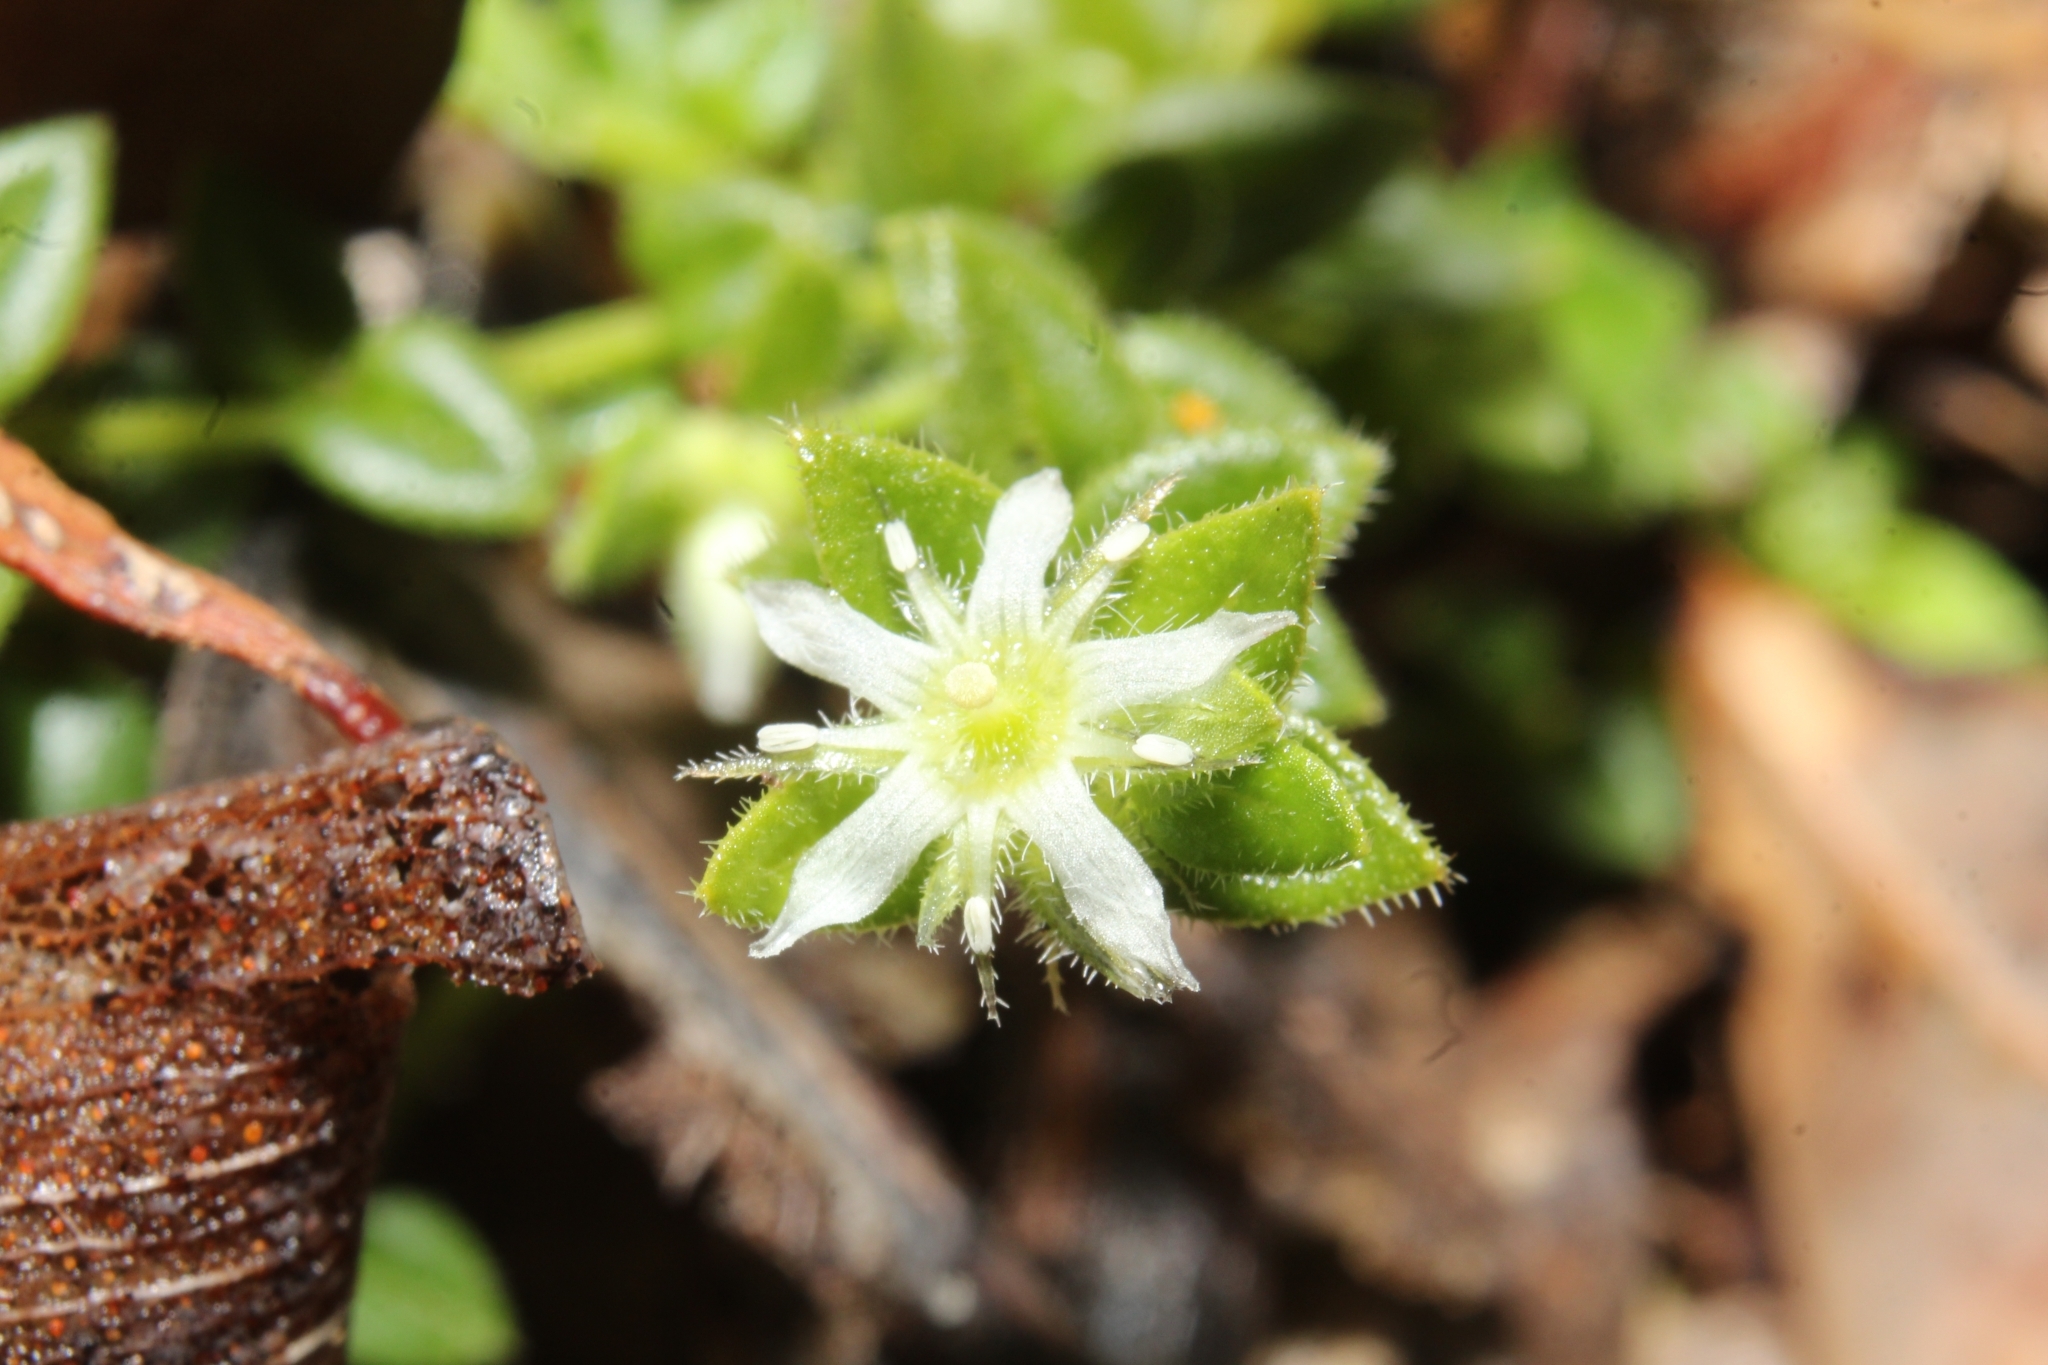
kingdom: Plantae
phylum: Tracheophyta
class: Magnoliopsida
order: Gentianales
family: Loganiaceae
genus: Orianthera
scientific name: Orianthera serpyllifolia
